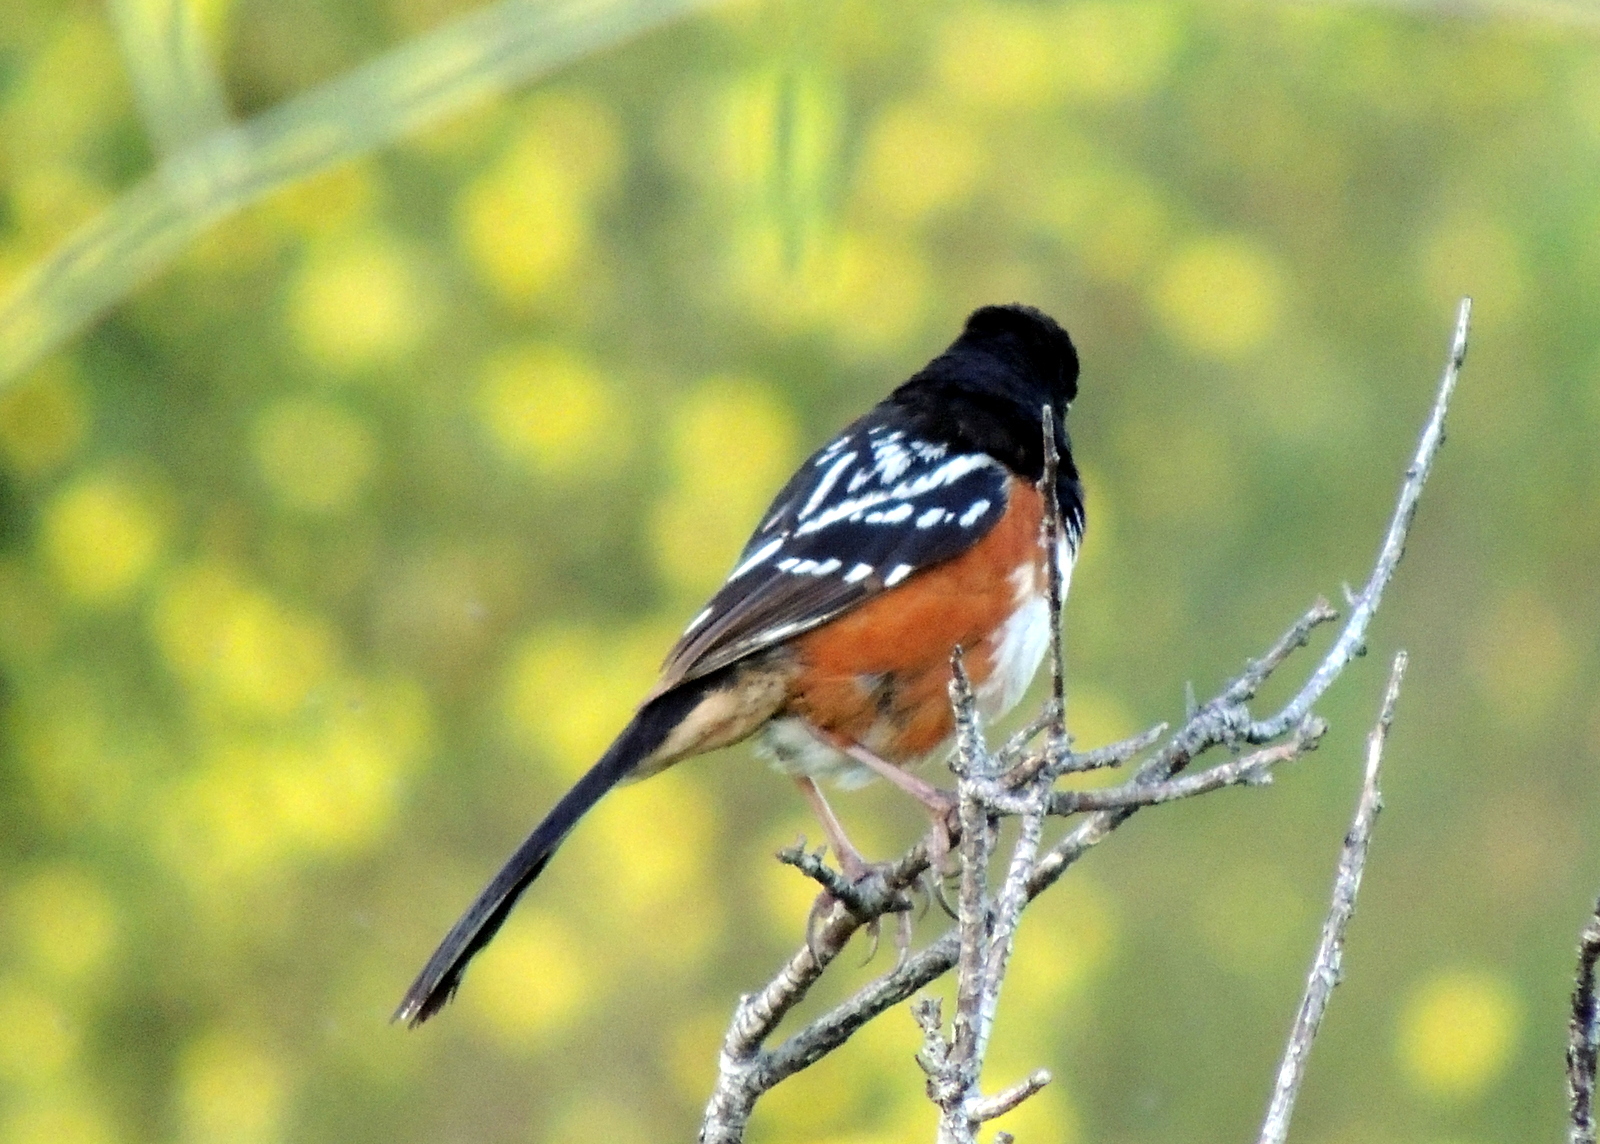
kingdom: Animalia
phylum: Chordata
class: Aves
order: Passeriformes
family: Passerellidae
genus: Pipilo
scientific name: Pipilo maculatus
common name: Spotted towhee
